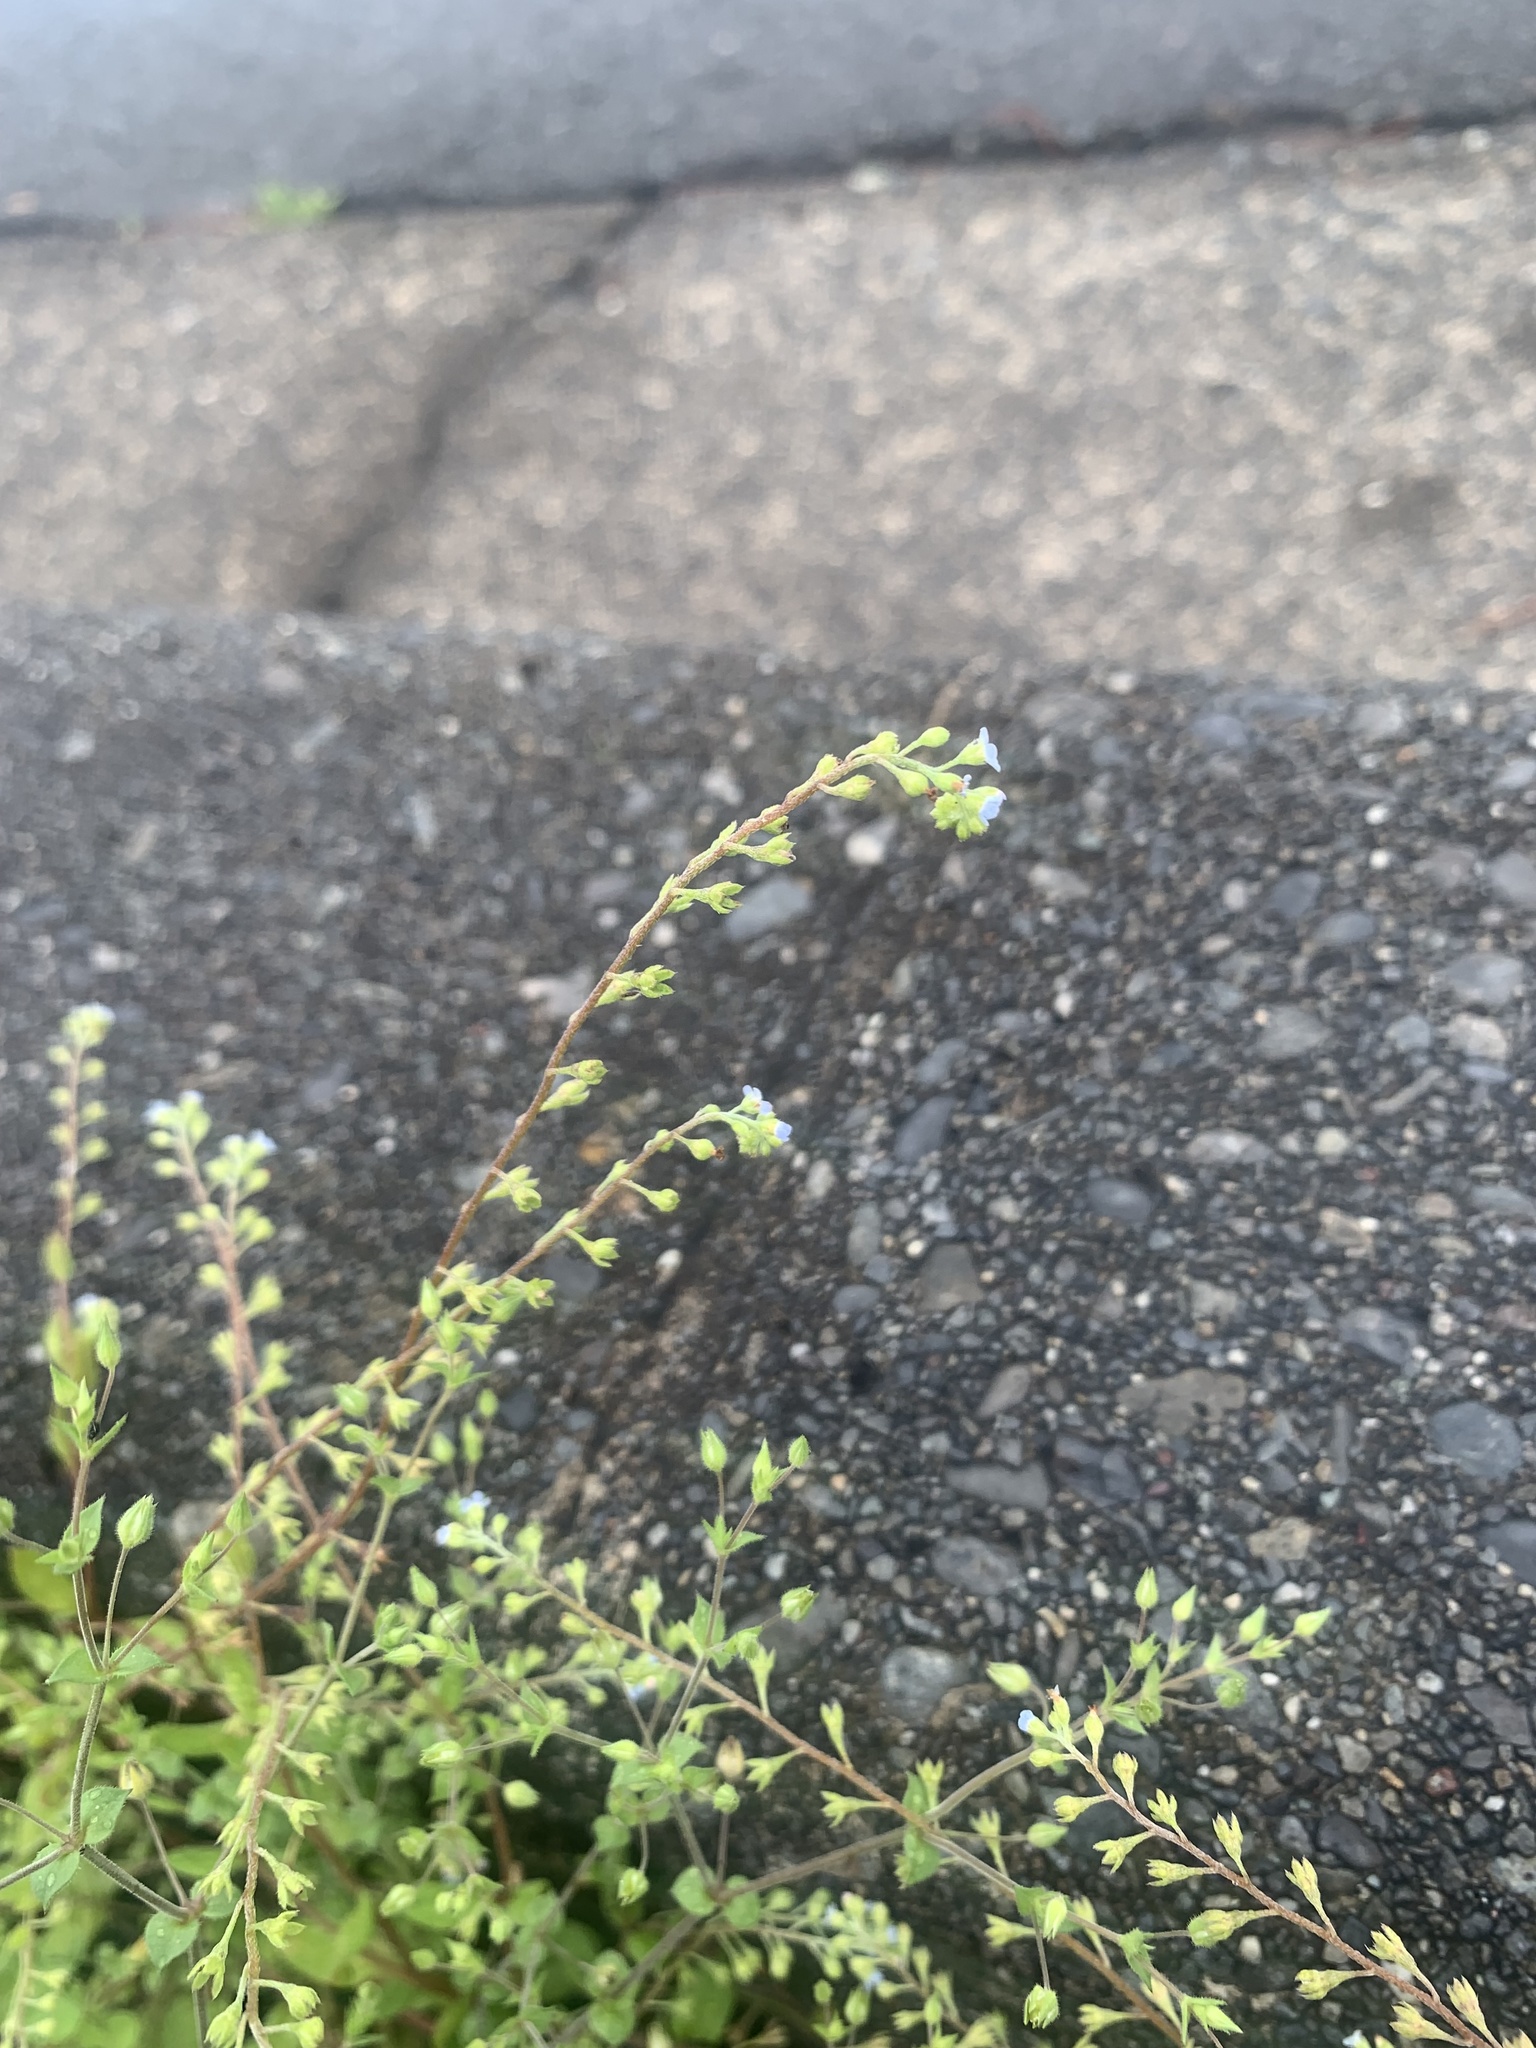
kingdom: Plantae
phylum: Tracheophyta
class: Magnoliopsida
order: Boraginales
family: Boraginaceae
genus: Trigonotis
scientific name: Trigonotis peduncularis
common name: Cucumber herb
